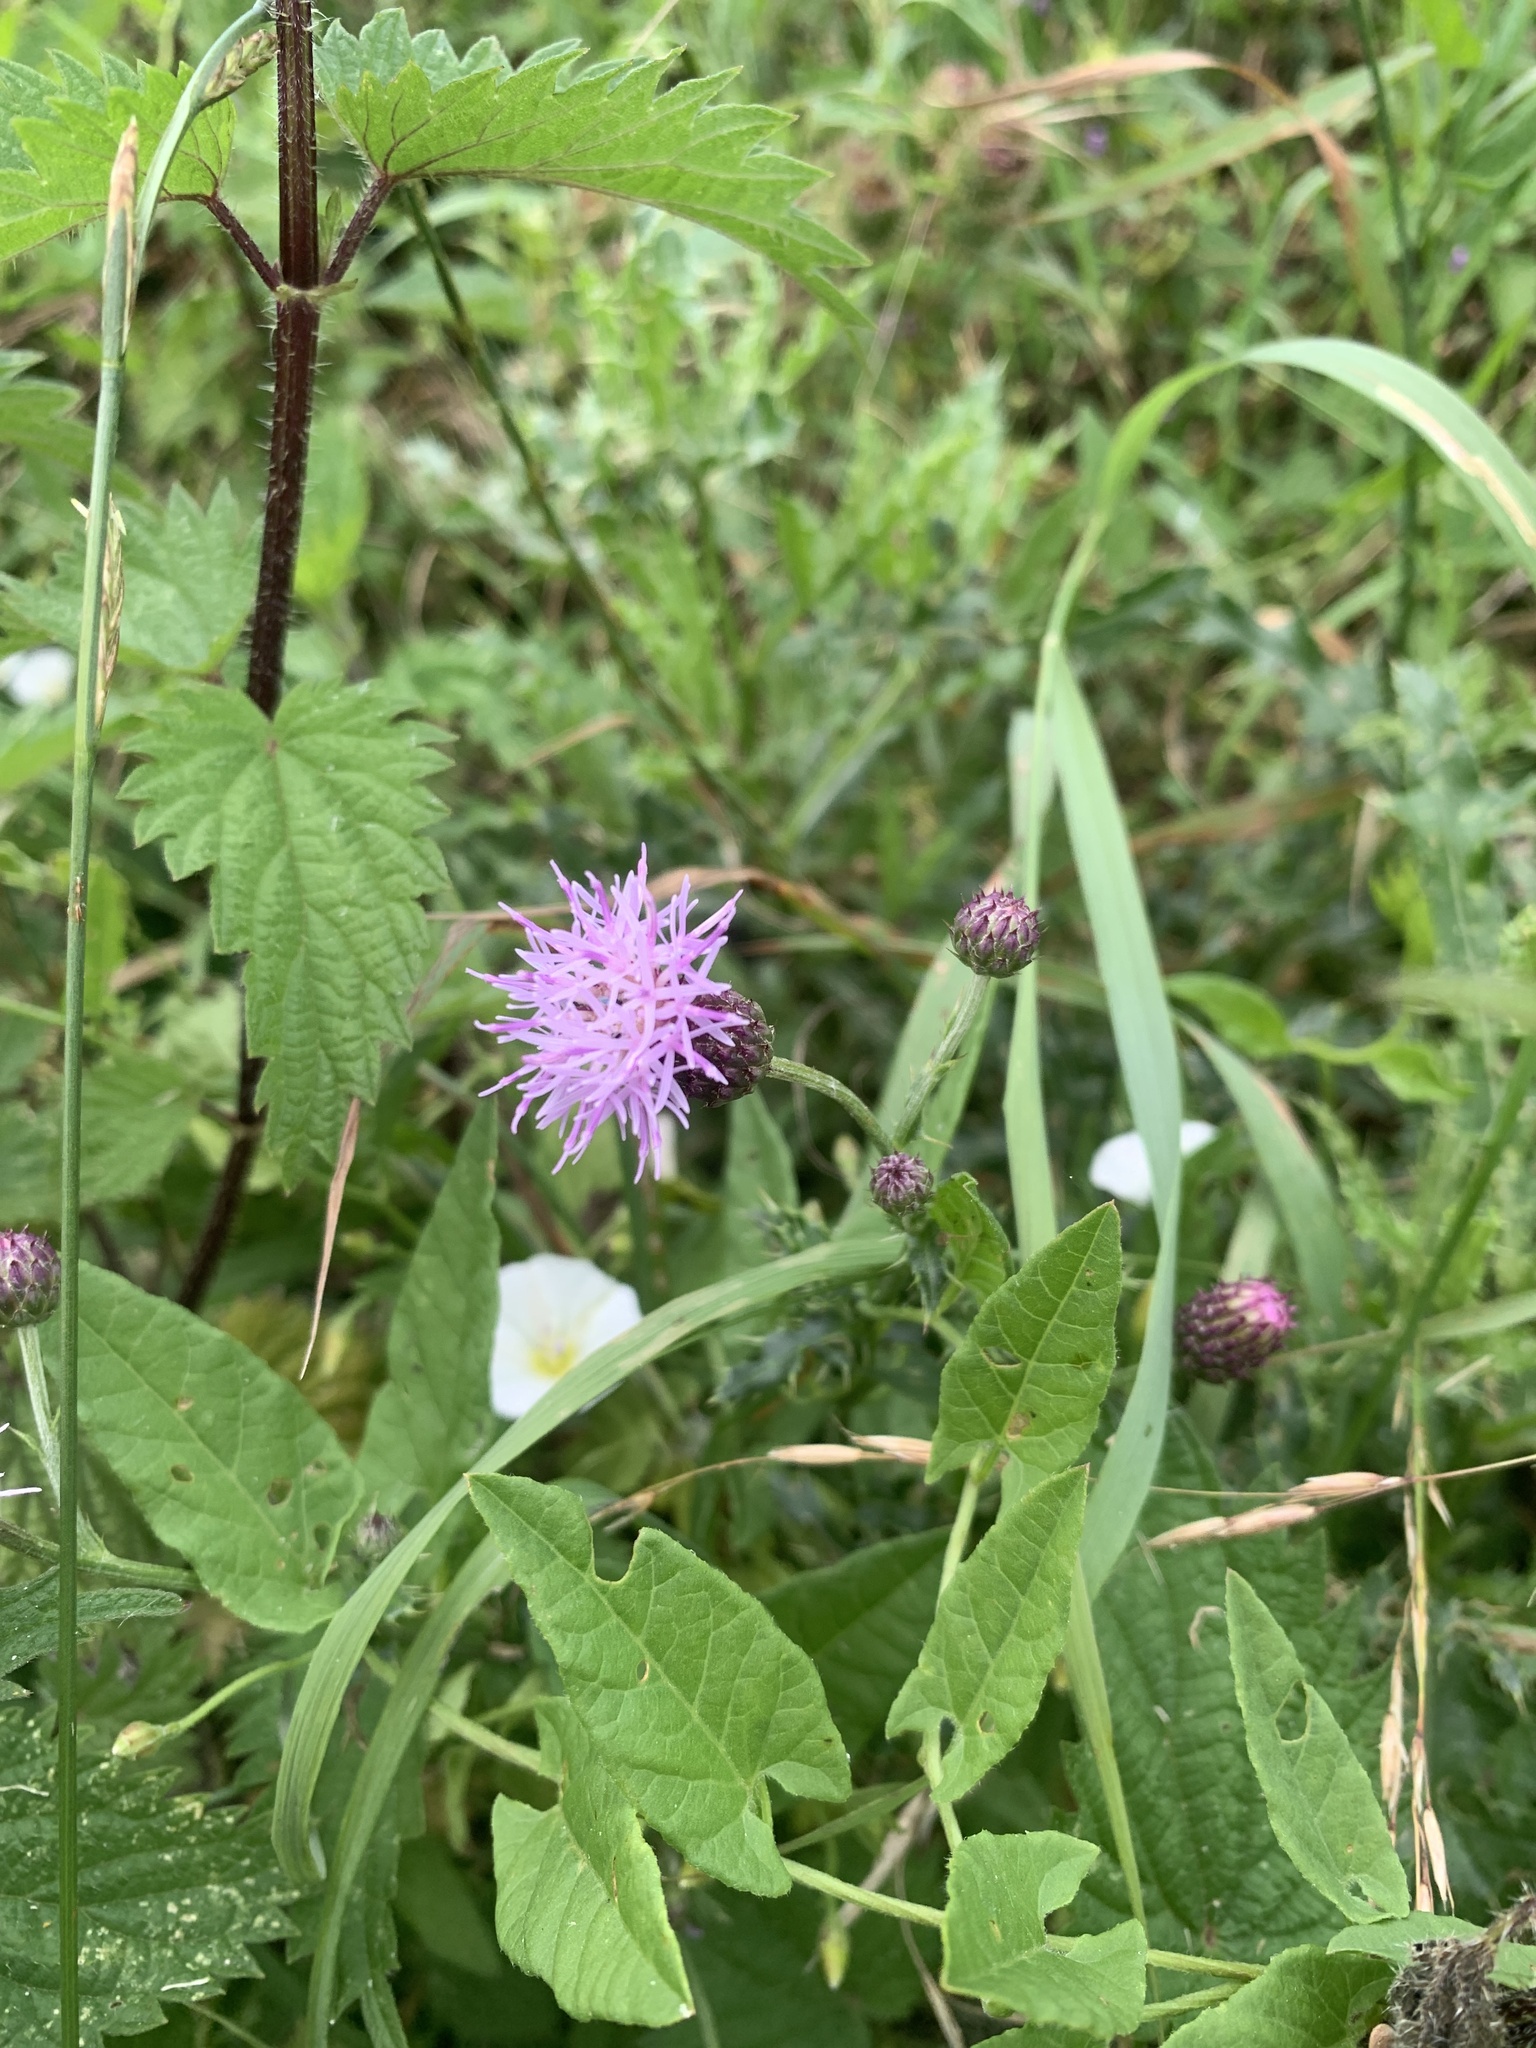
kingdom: Plantae
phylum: Tracheophyta
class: Magnoliopsida
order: Asterales
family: Asteraceae
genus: Cirsium
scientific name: Cirsium arvense
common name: Creeping thistle
